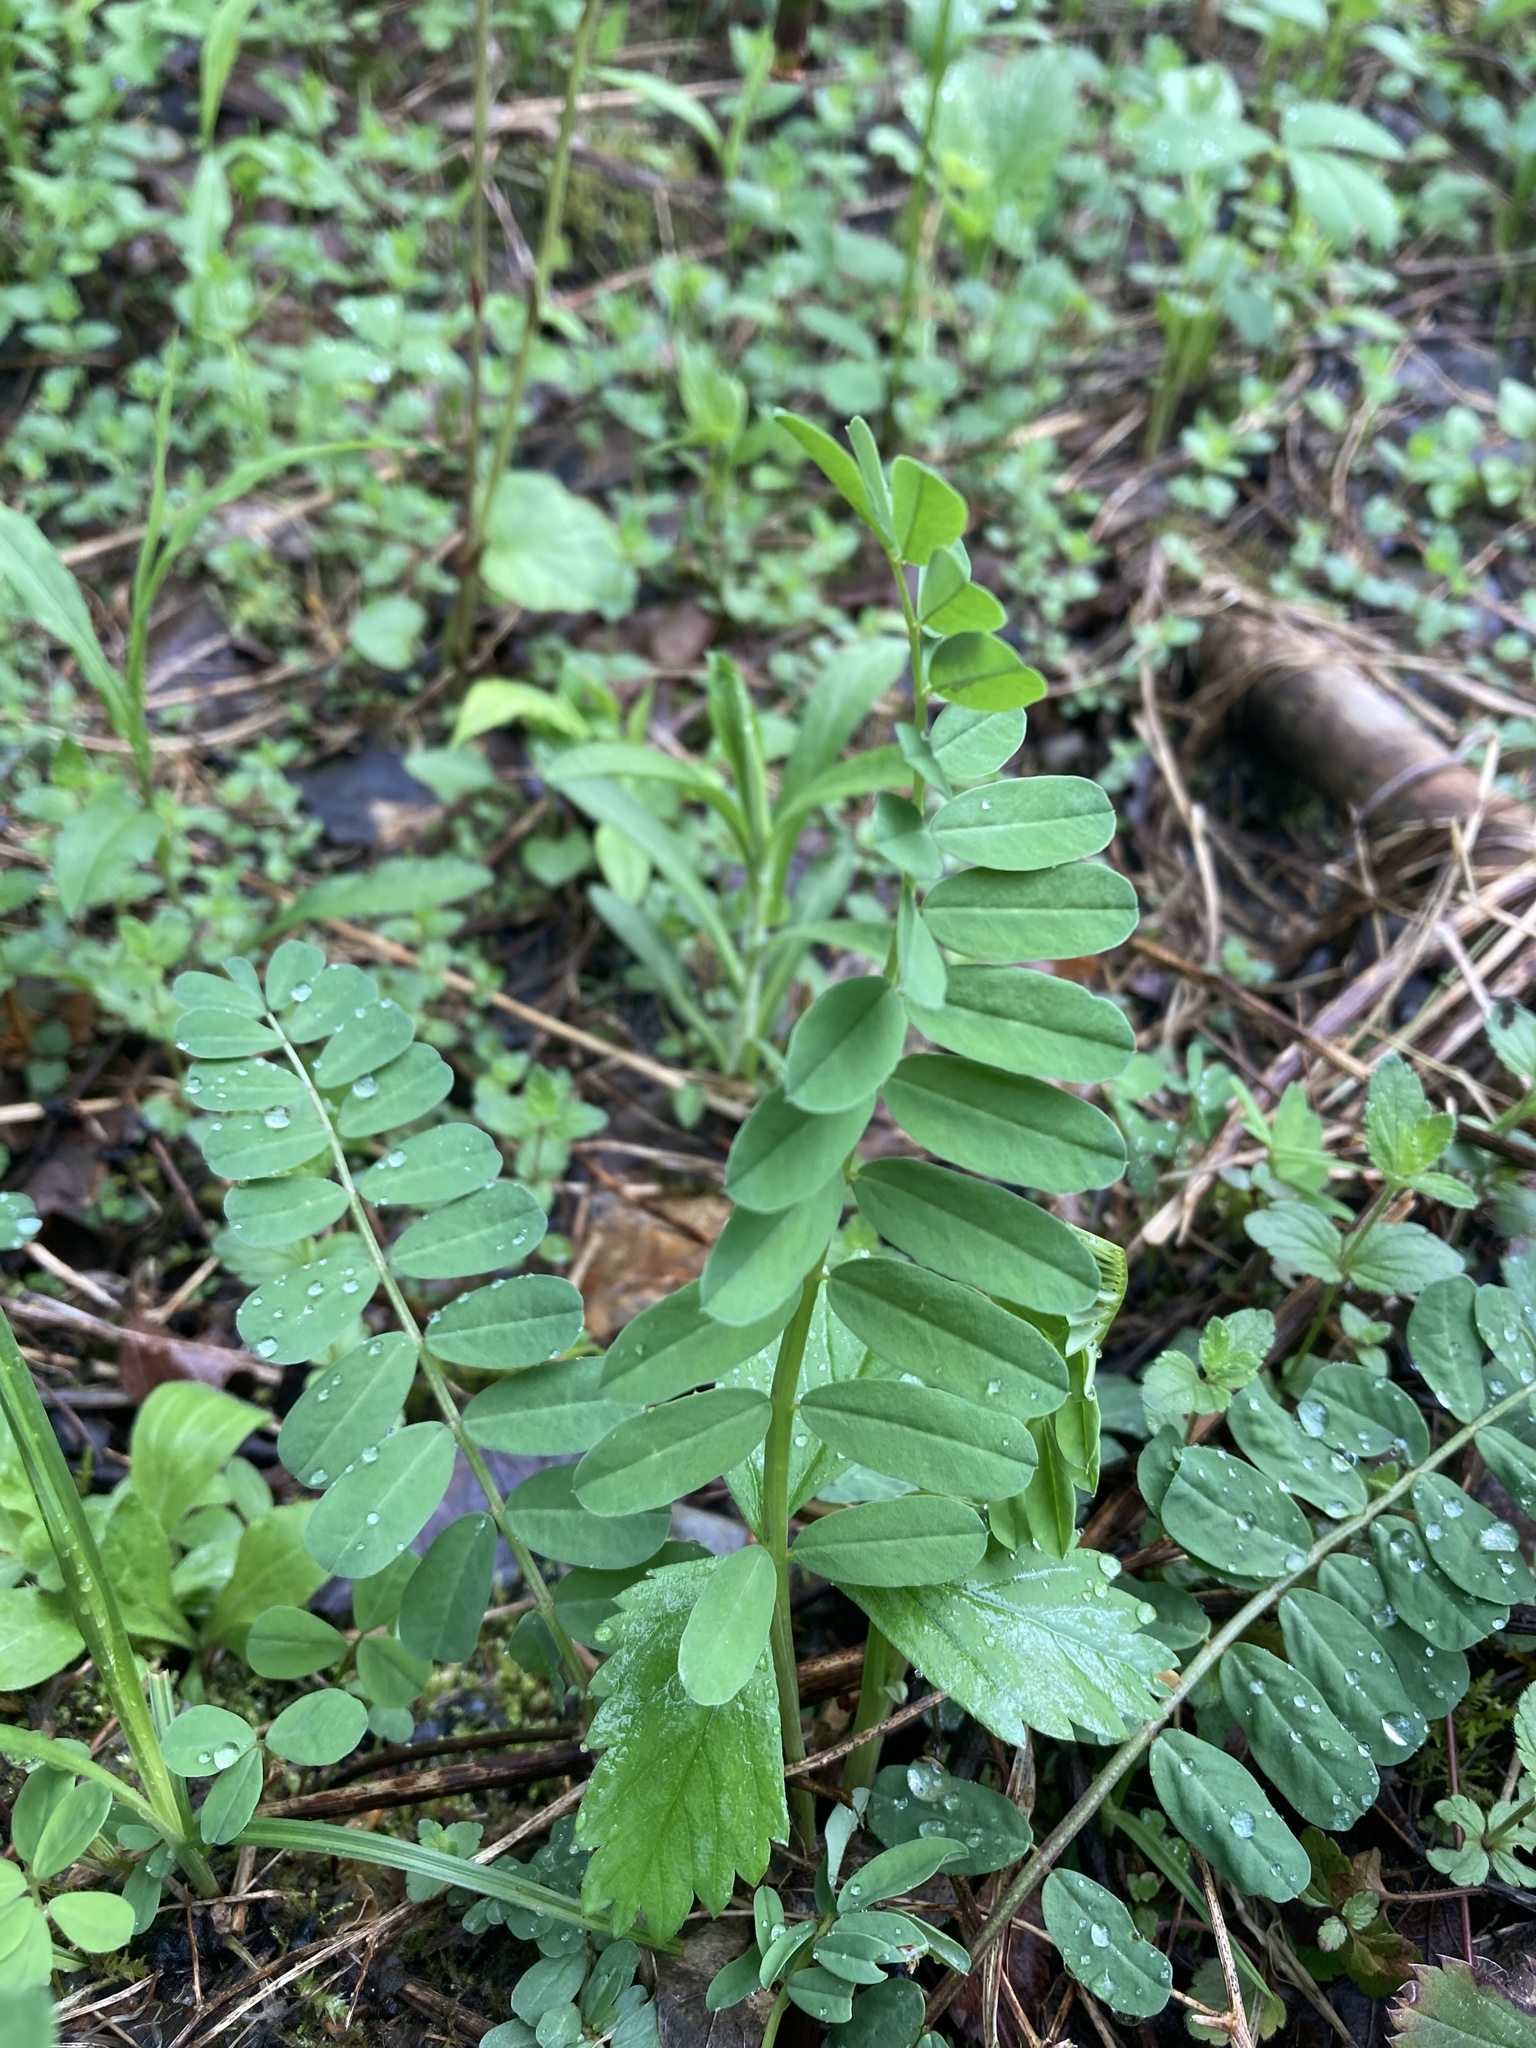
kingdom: Plantae
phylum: Tracheophyta
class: Magnoliopsida
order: Fabales
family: Fabaceae
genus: Coronilla
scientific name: Coronilla varia
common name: Crownvetch
